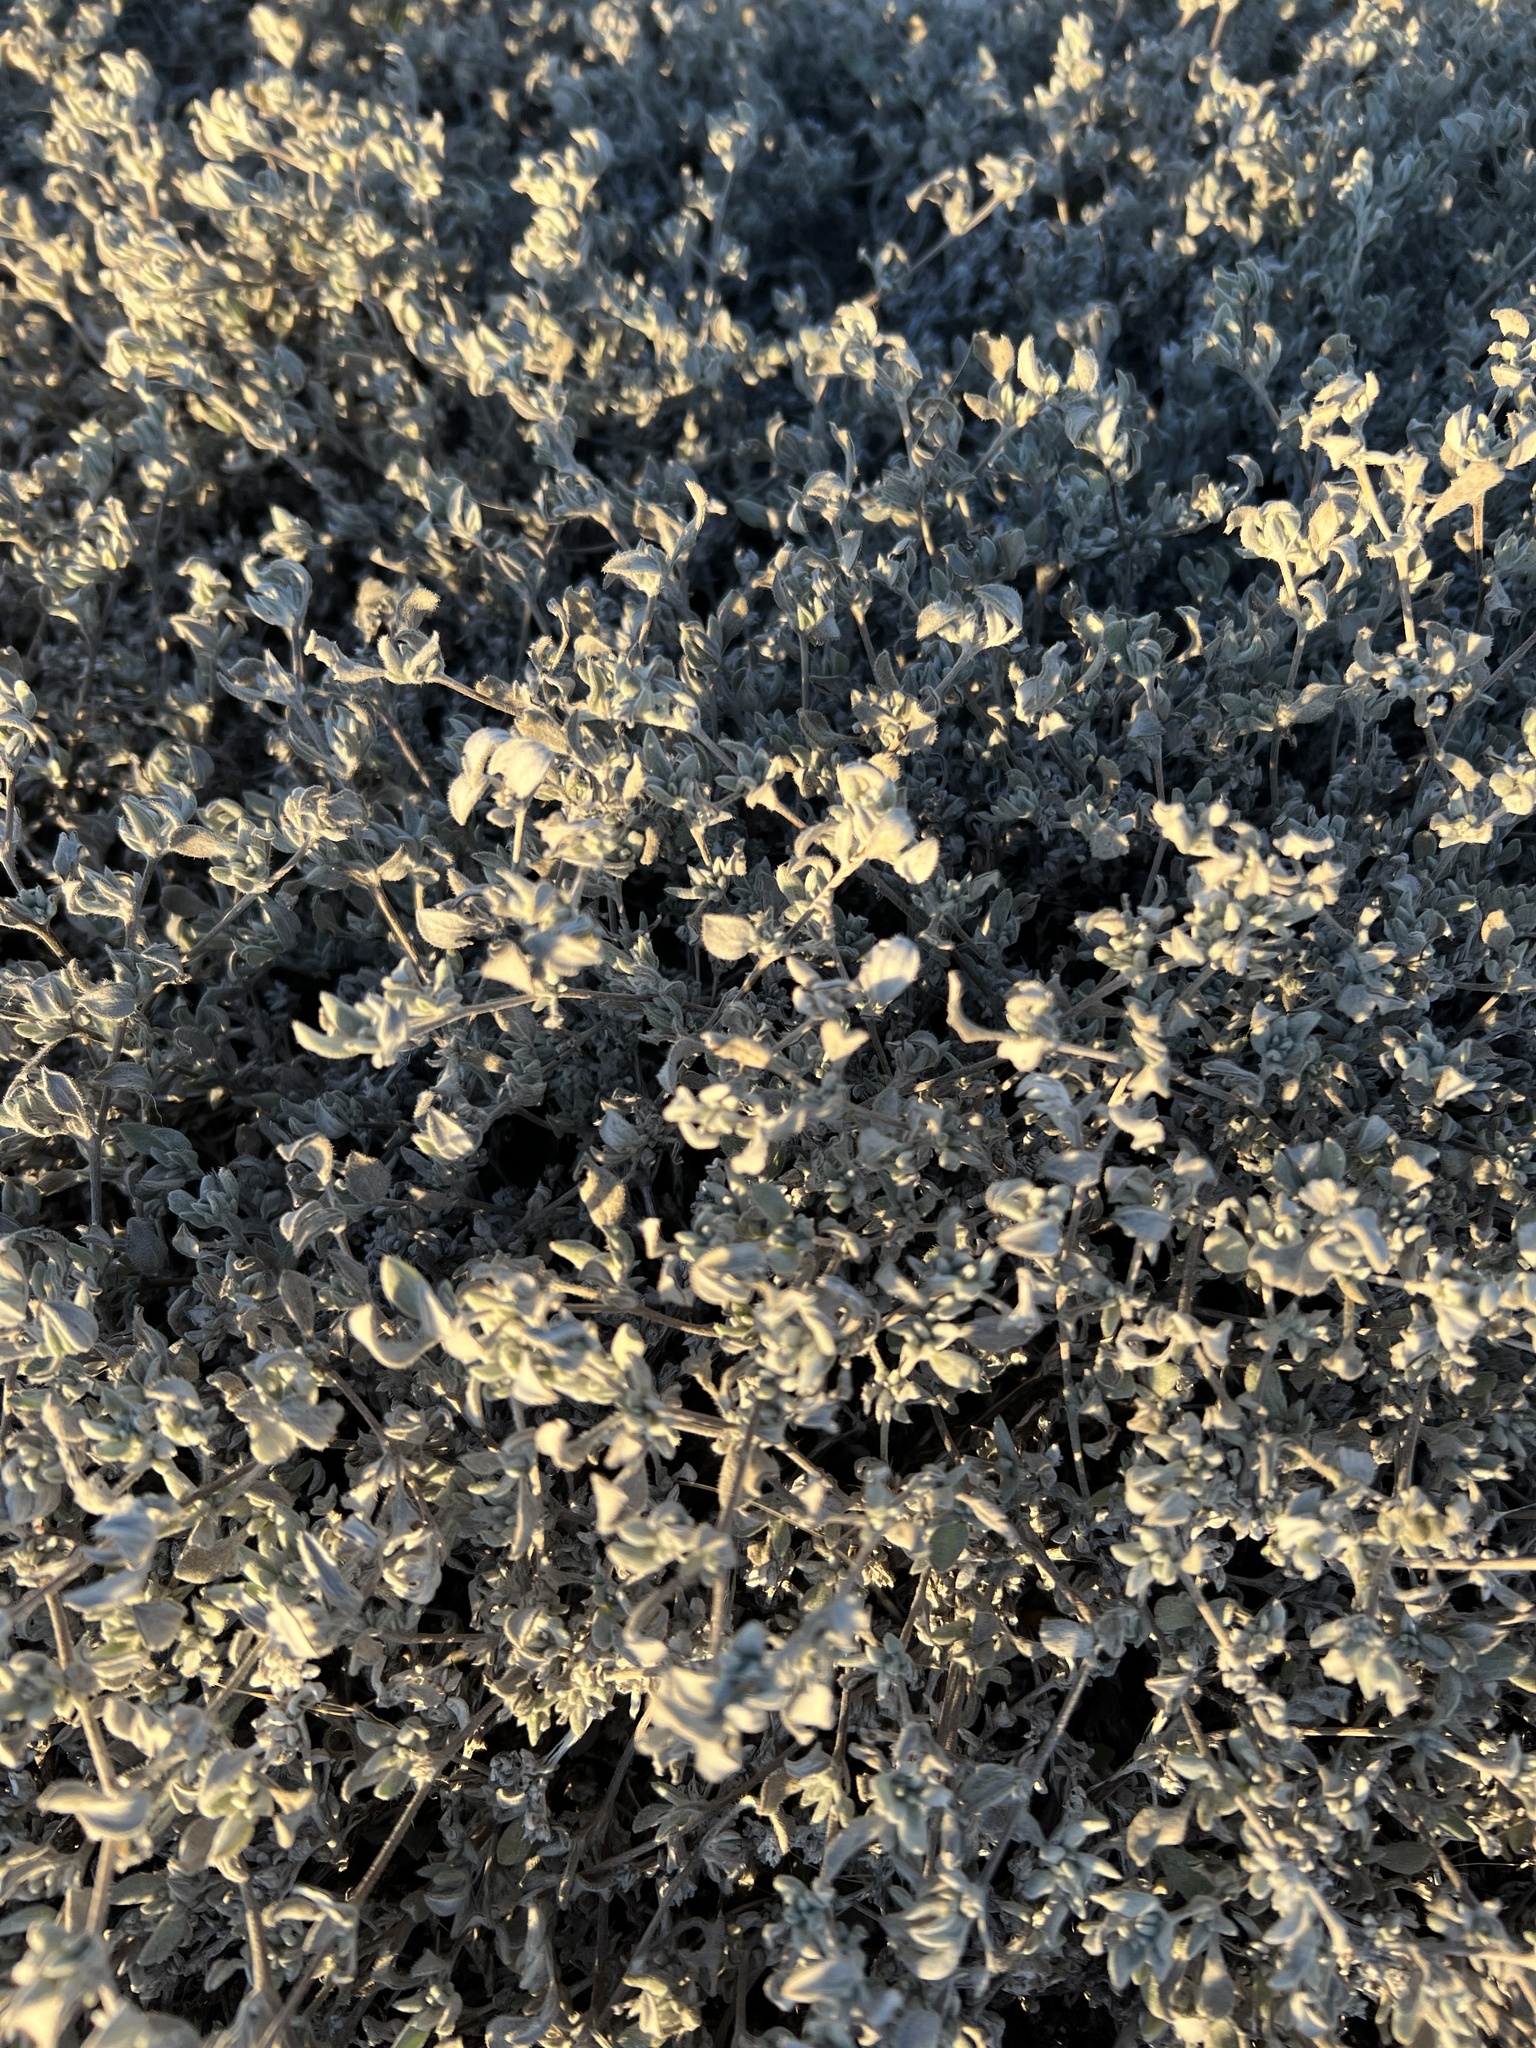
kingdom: Plantae
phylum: Tracheophyta
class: Magnoliopsida
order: Boraginales
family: Ehretiaceae
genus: Tiquilia
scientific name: Tiquilia canescens
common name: Hairy tiquilia
